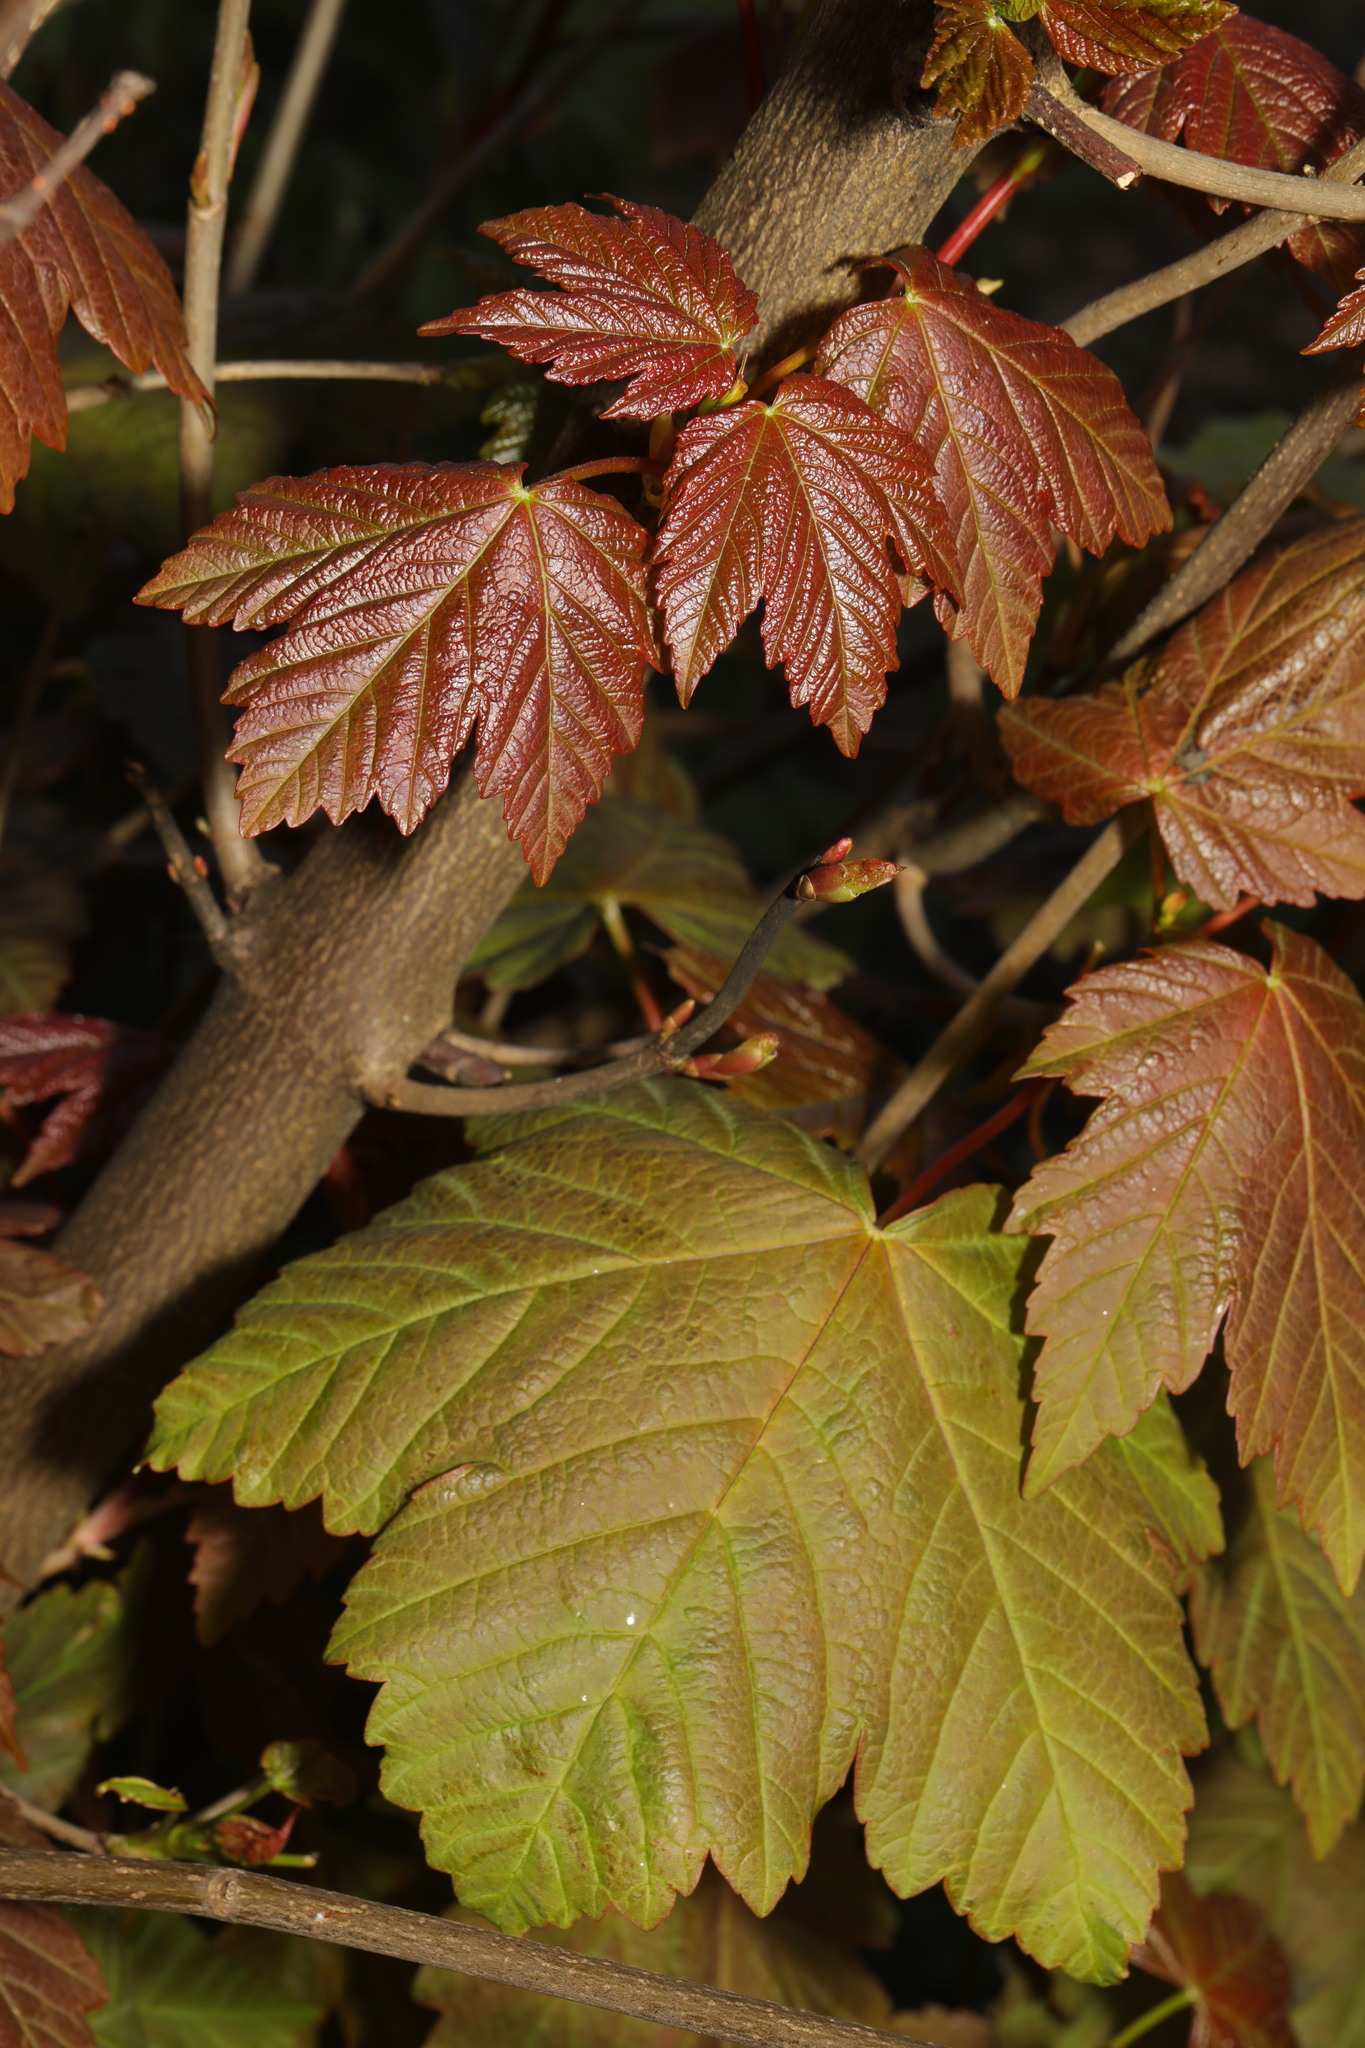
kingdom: Plantae
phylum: Tracheophyta
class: Magnoliopsida
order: Sapindales
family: Sapindaceae
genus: Acer
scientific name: Acer pseudoplatanus
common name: Sycamore
